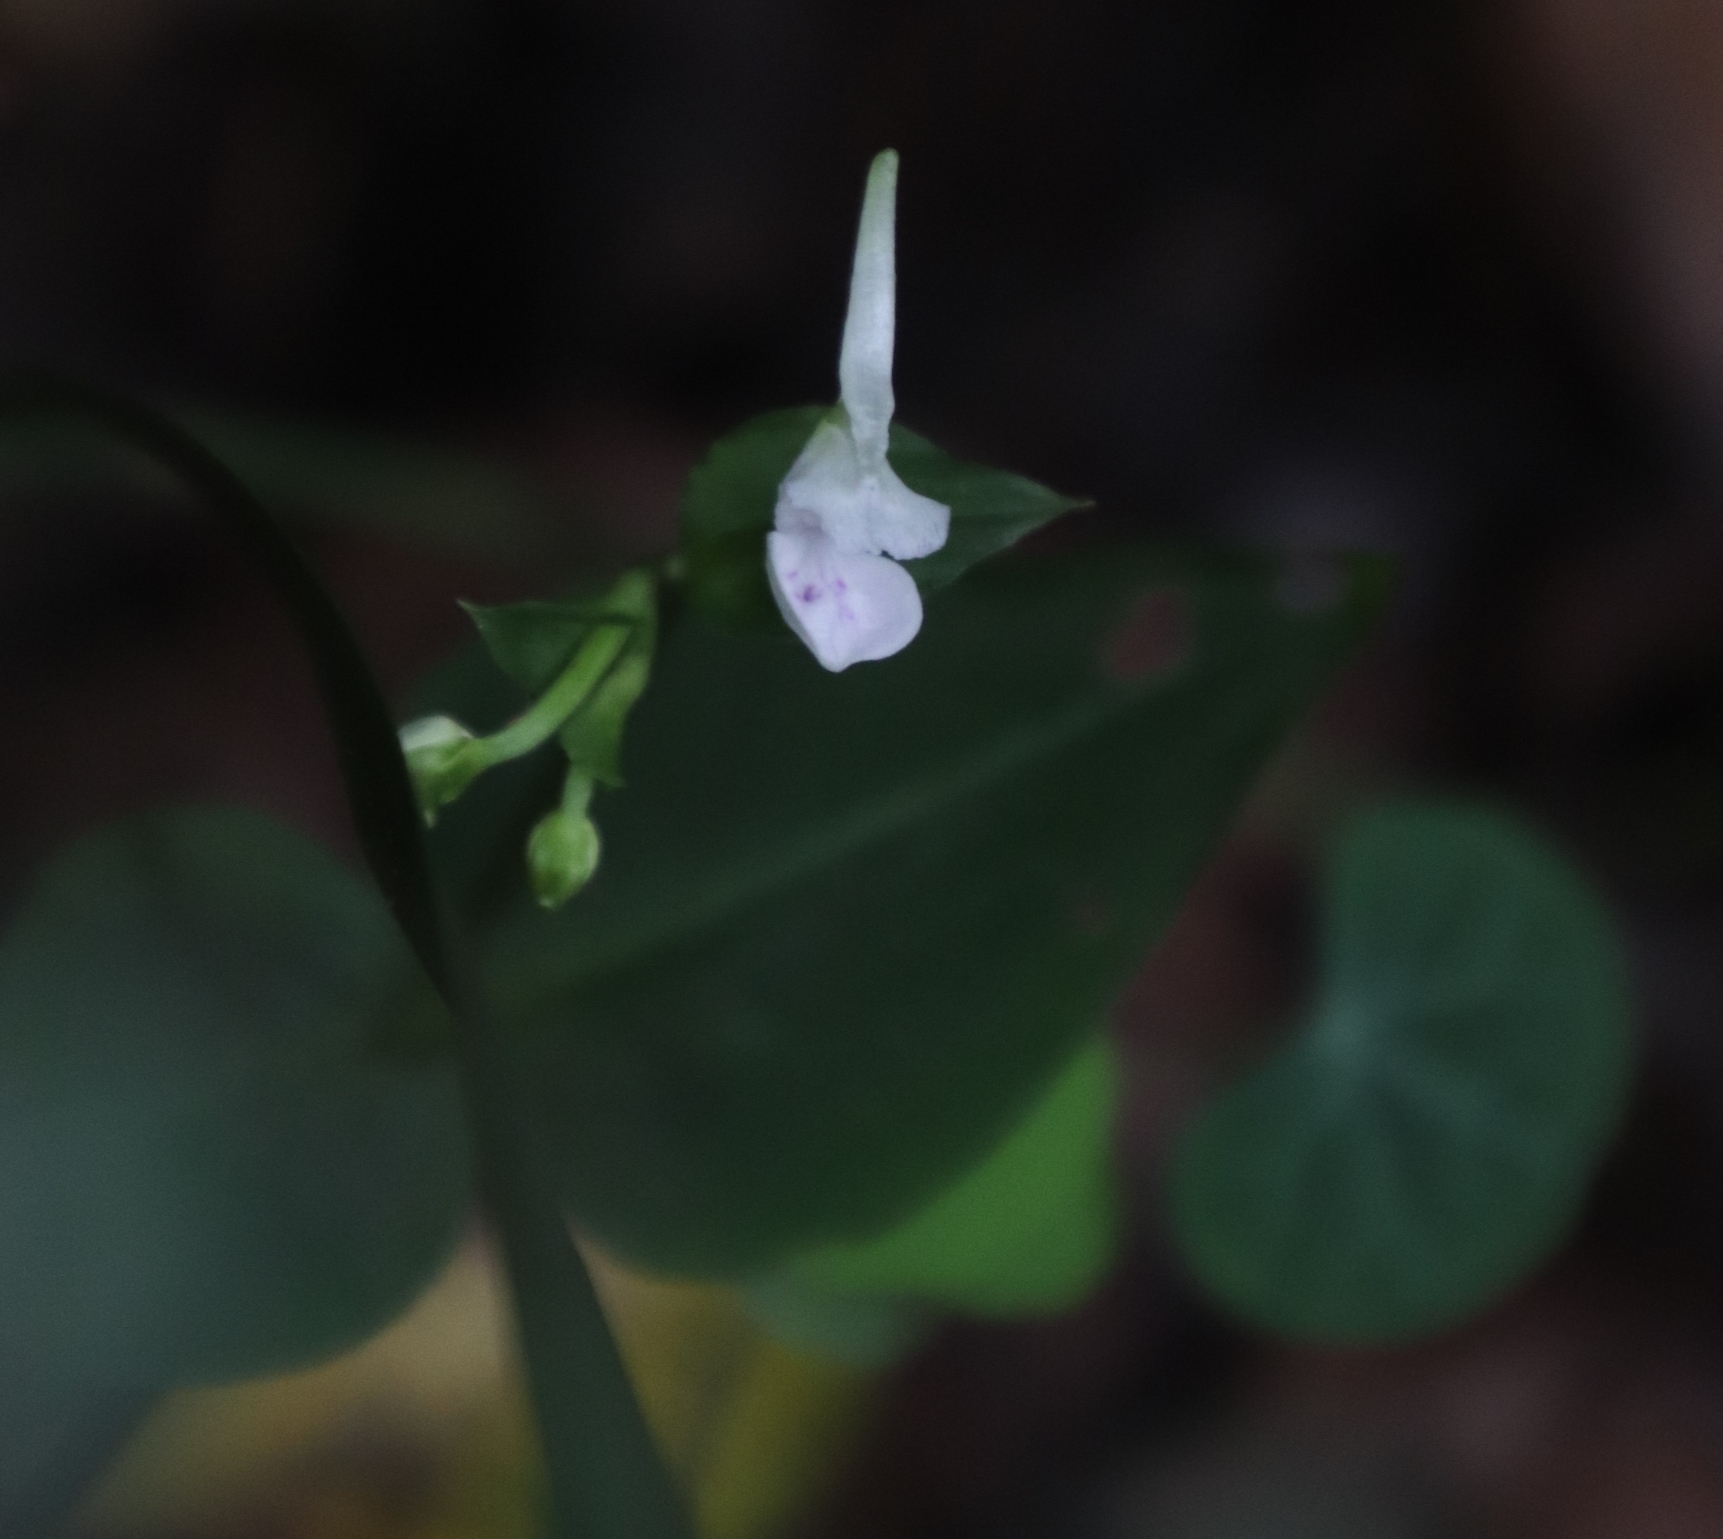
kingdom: Plantae
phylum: Tracheophyta
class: Liliopsida
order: Asparagales
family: Orchidaceae
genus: Disperis
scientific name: Disperis anthoceros
